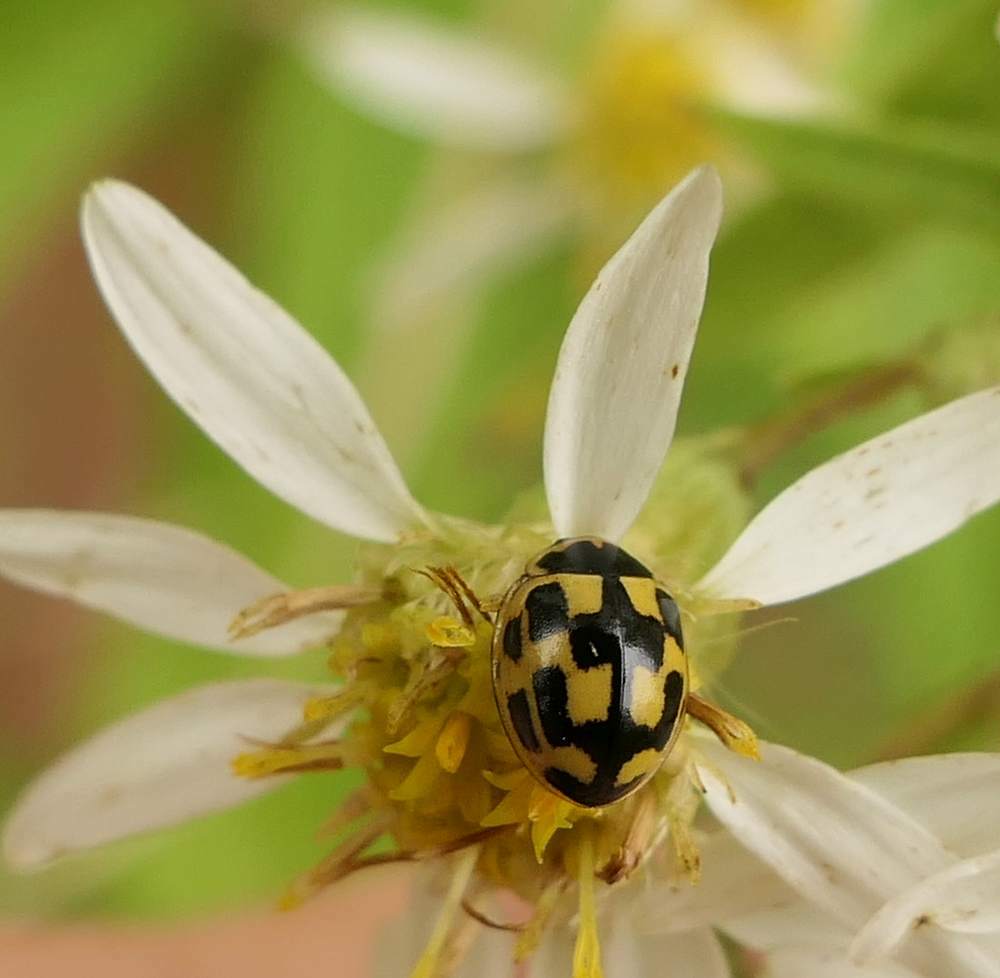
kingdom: Animalia
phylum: Arthropoda
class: Insecta
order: Coleoptera
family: Coccinellidae
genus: Propylaea
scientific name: Propylaea quatuordecimpunctata
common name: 14-spotted ladybird beetle
